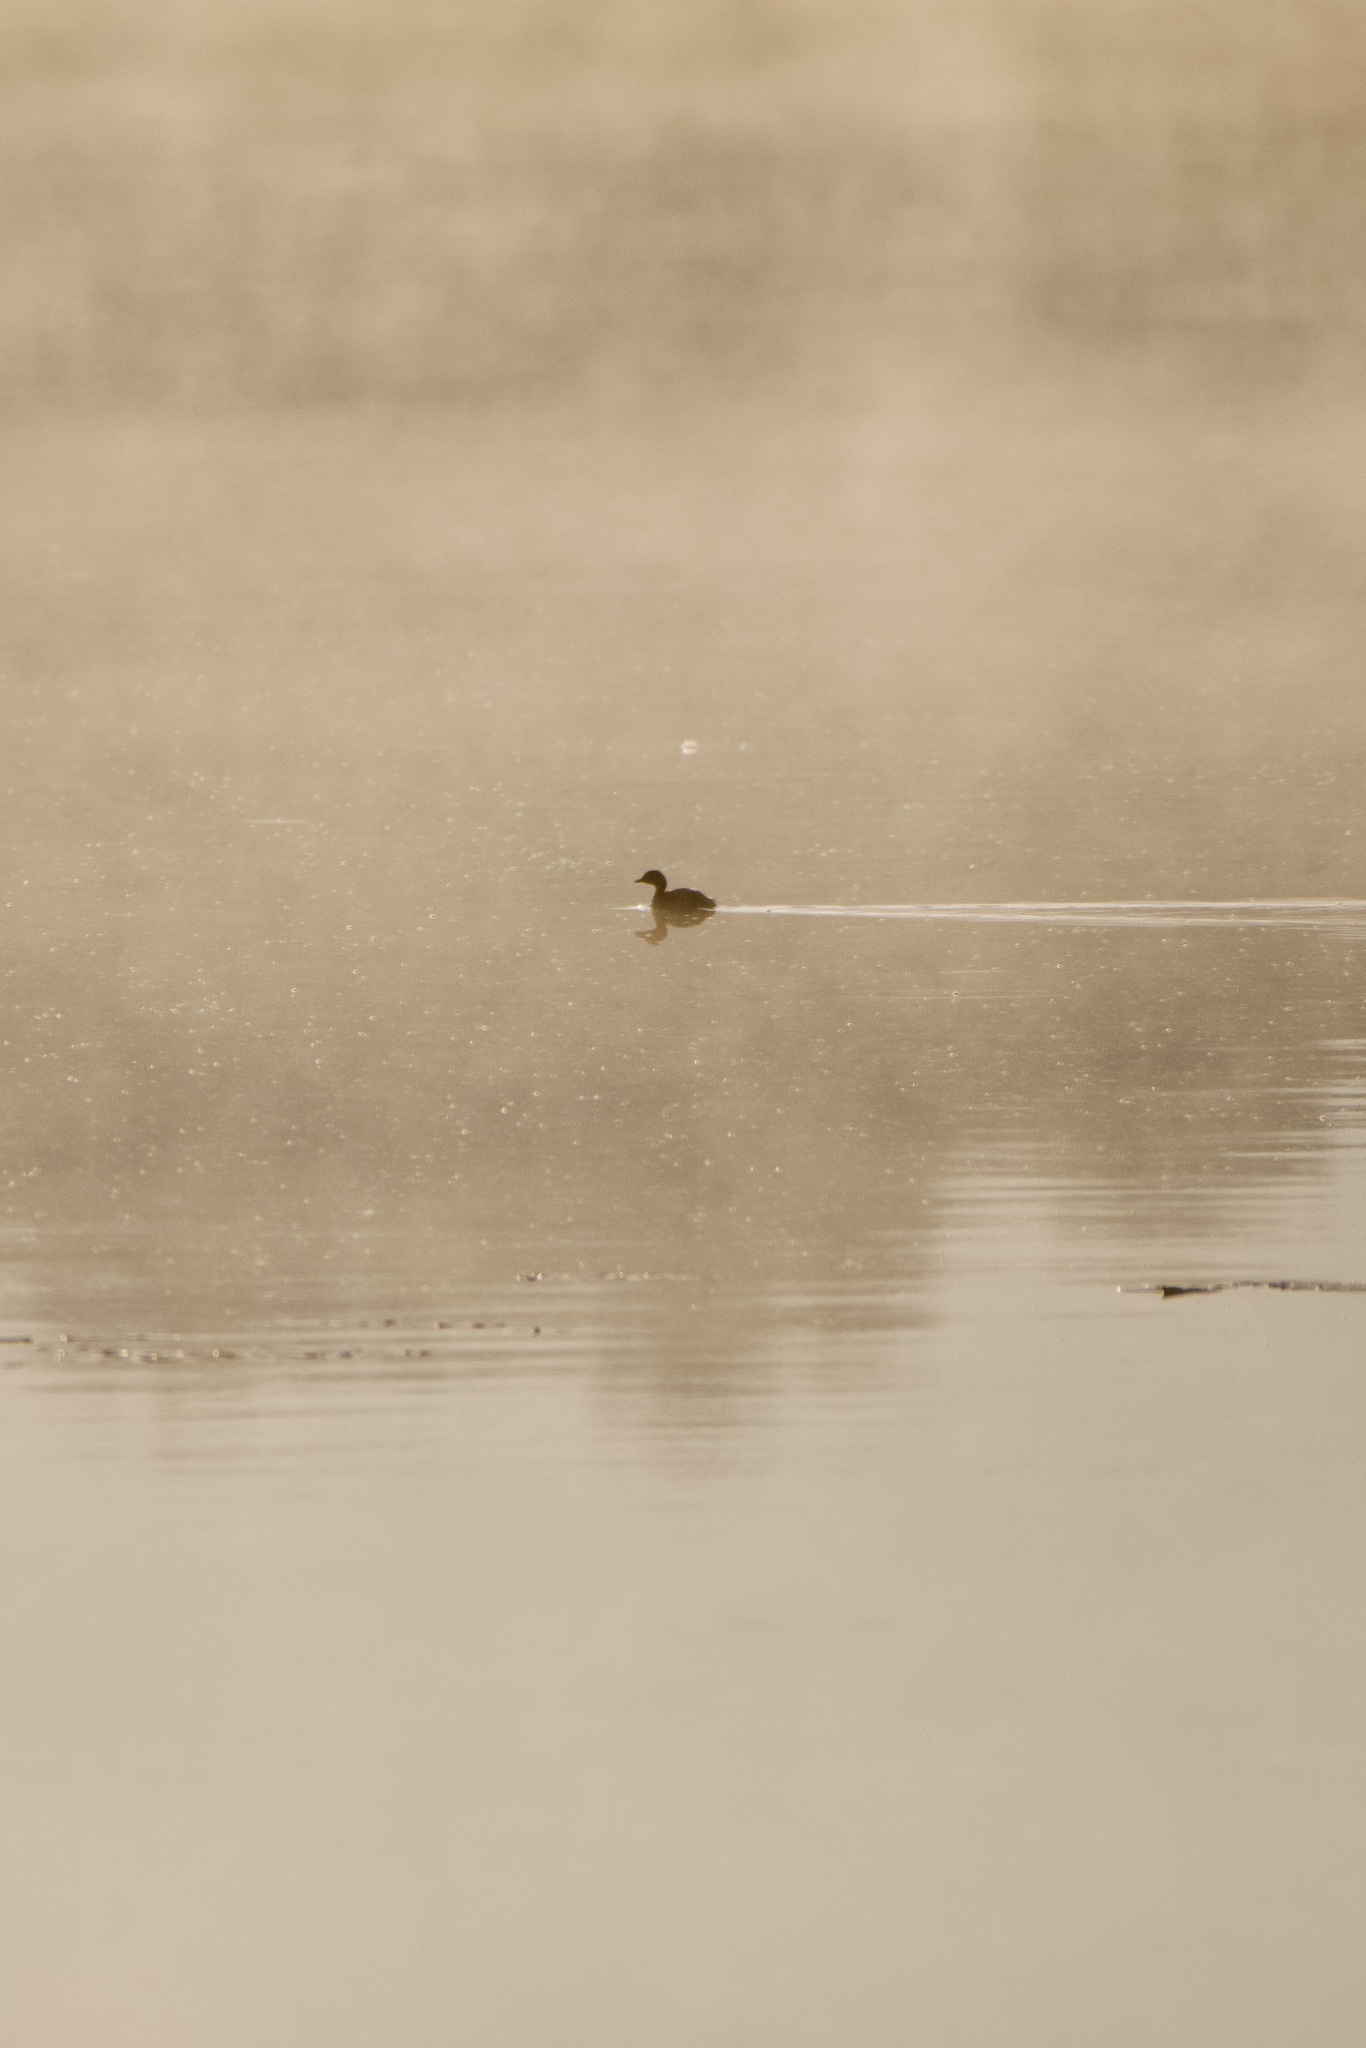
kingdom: Animalia
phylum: Chordata
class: Aves
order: Podicipediformes
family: Podicipedidae
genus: Tachybaptus
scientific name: Tachybaptus ruficollis
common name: Little grebe
